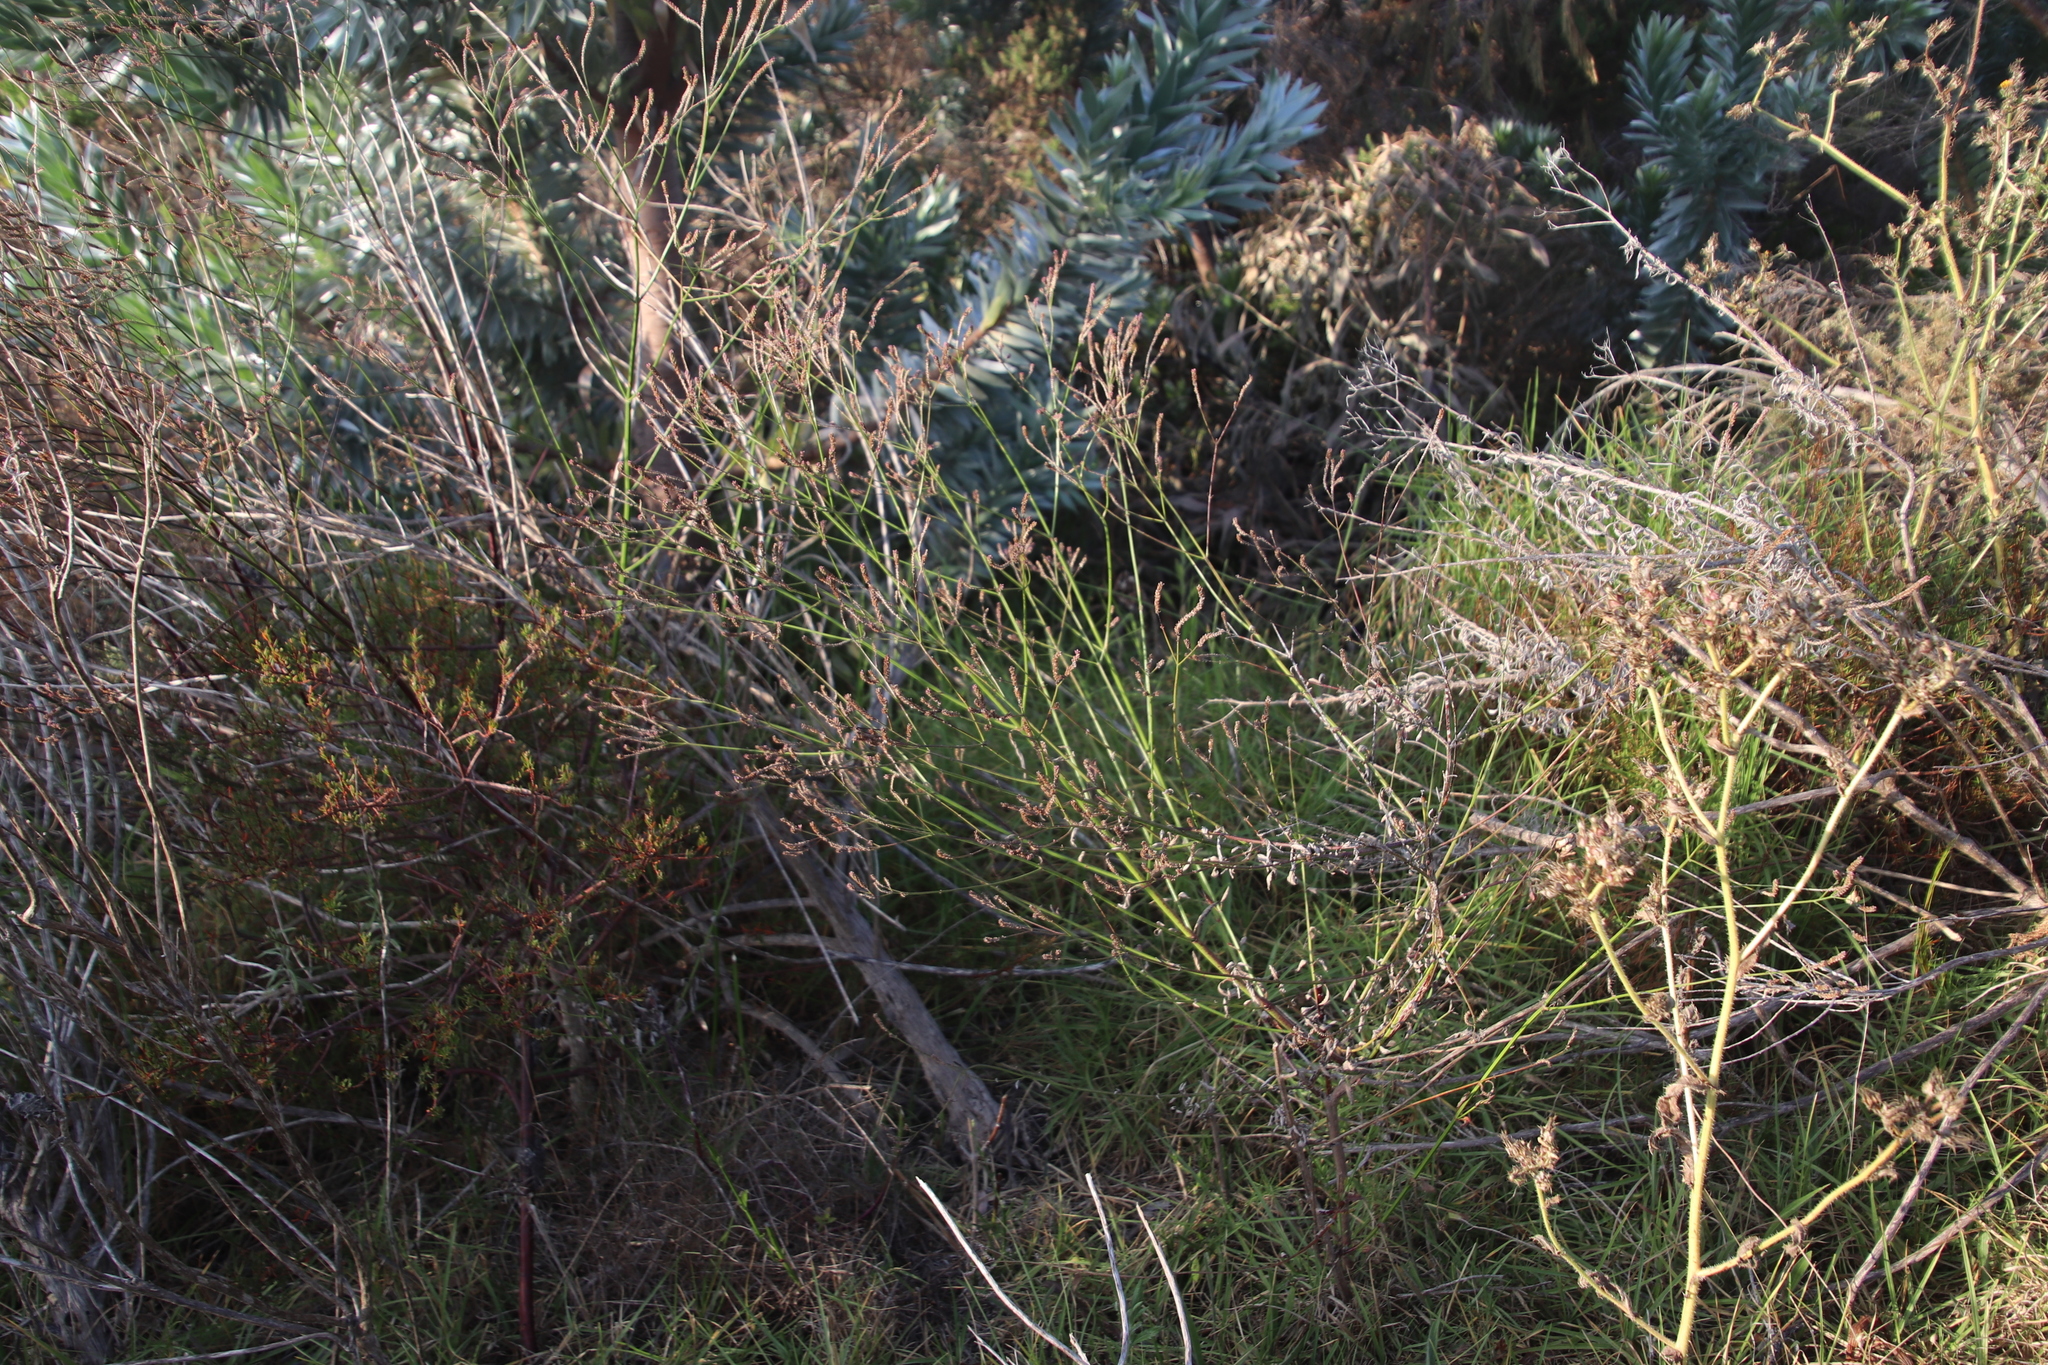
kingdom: Plantae
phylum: Tracheophyta
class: Magnoliopsida
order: Lamiales
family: Verbenaceae
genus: Verbena
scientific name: Verbena brasiliensis
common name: Brazilian vervain
